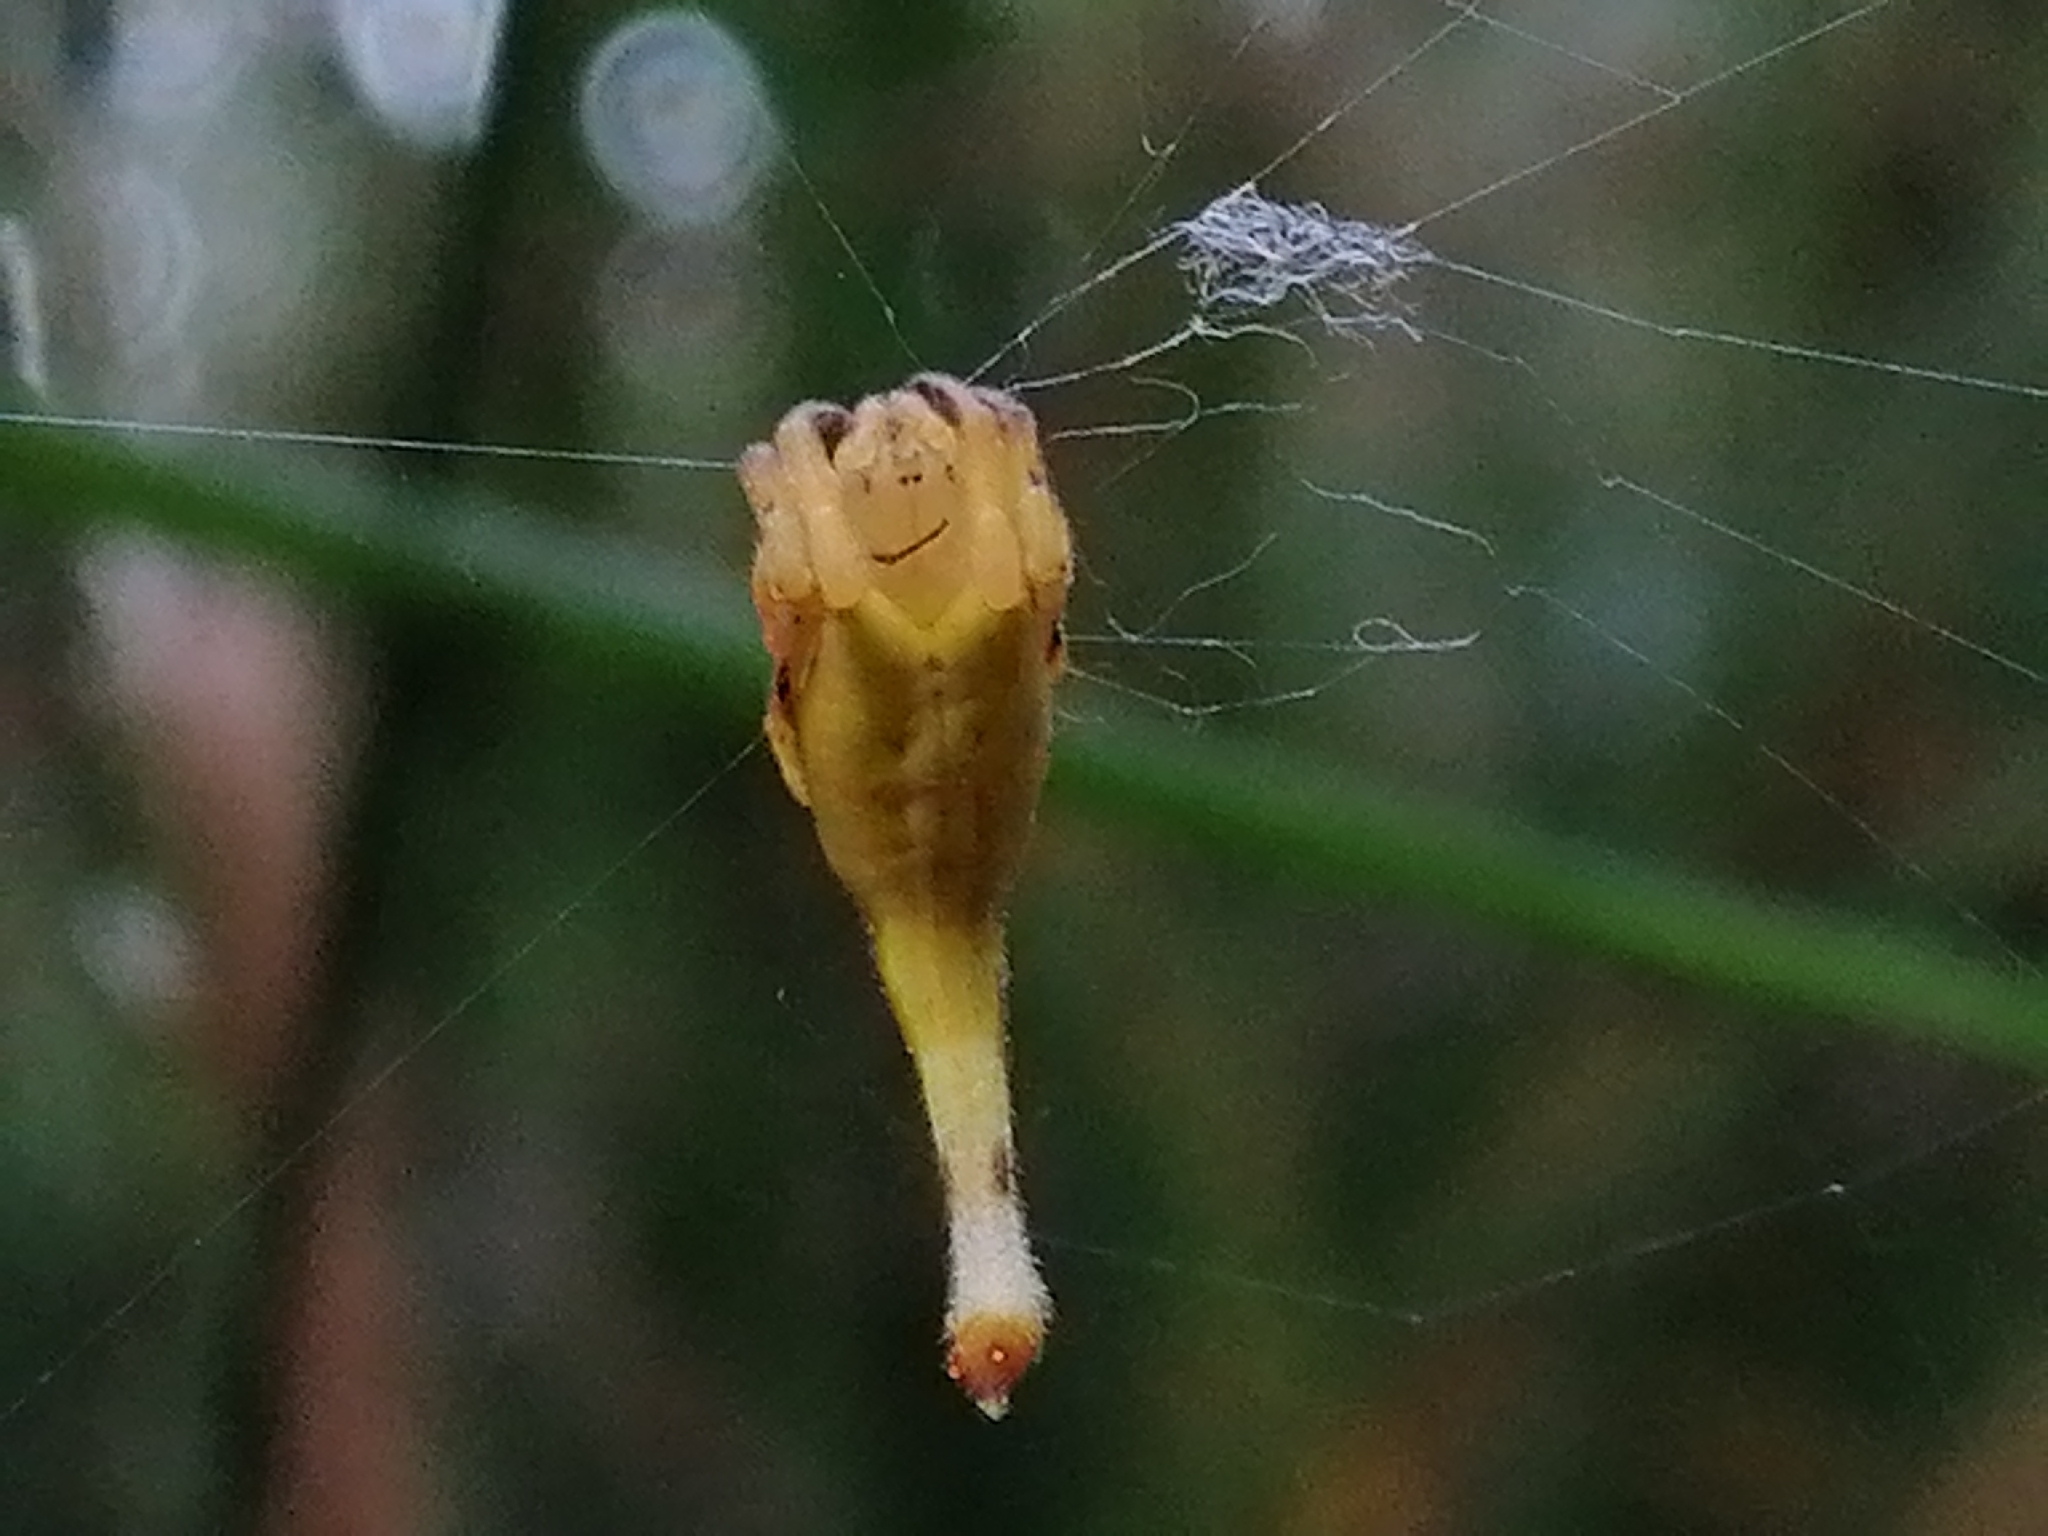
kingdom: Animalia
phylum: Arthropoda
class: Arachnida
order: Araneae
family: Araneidae
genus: Arachnura
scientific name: Arachnura feredayi
